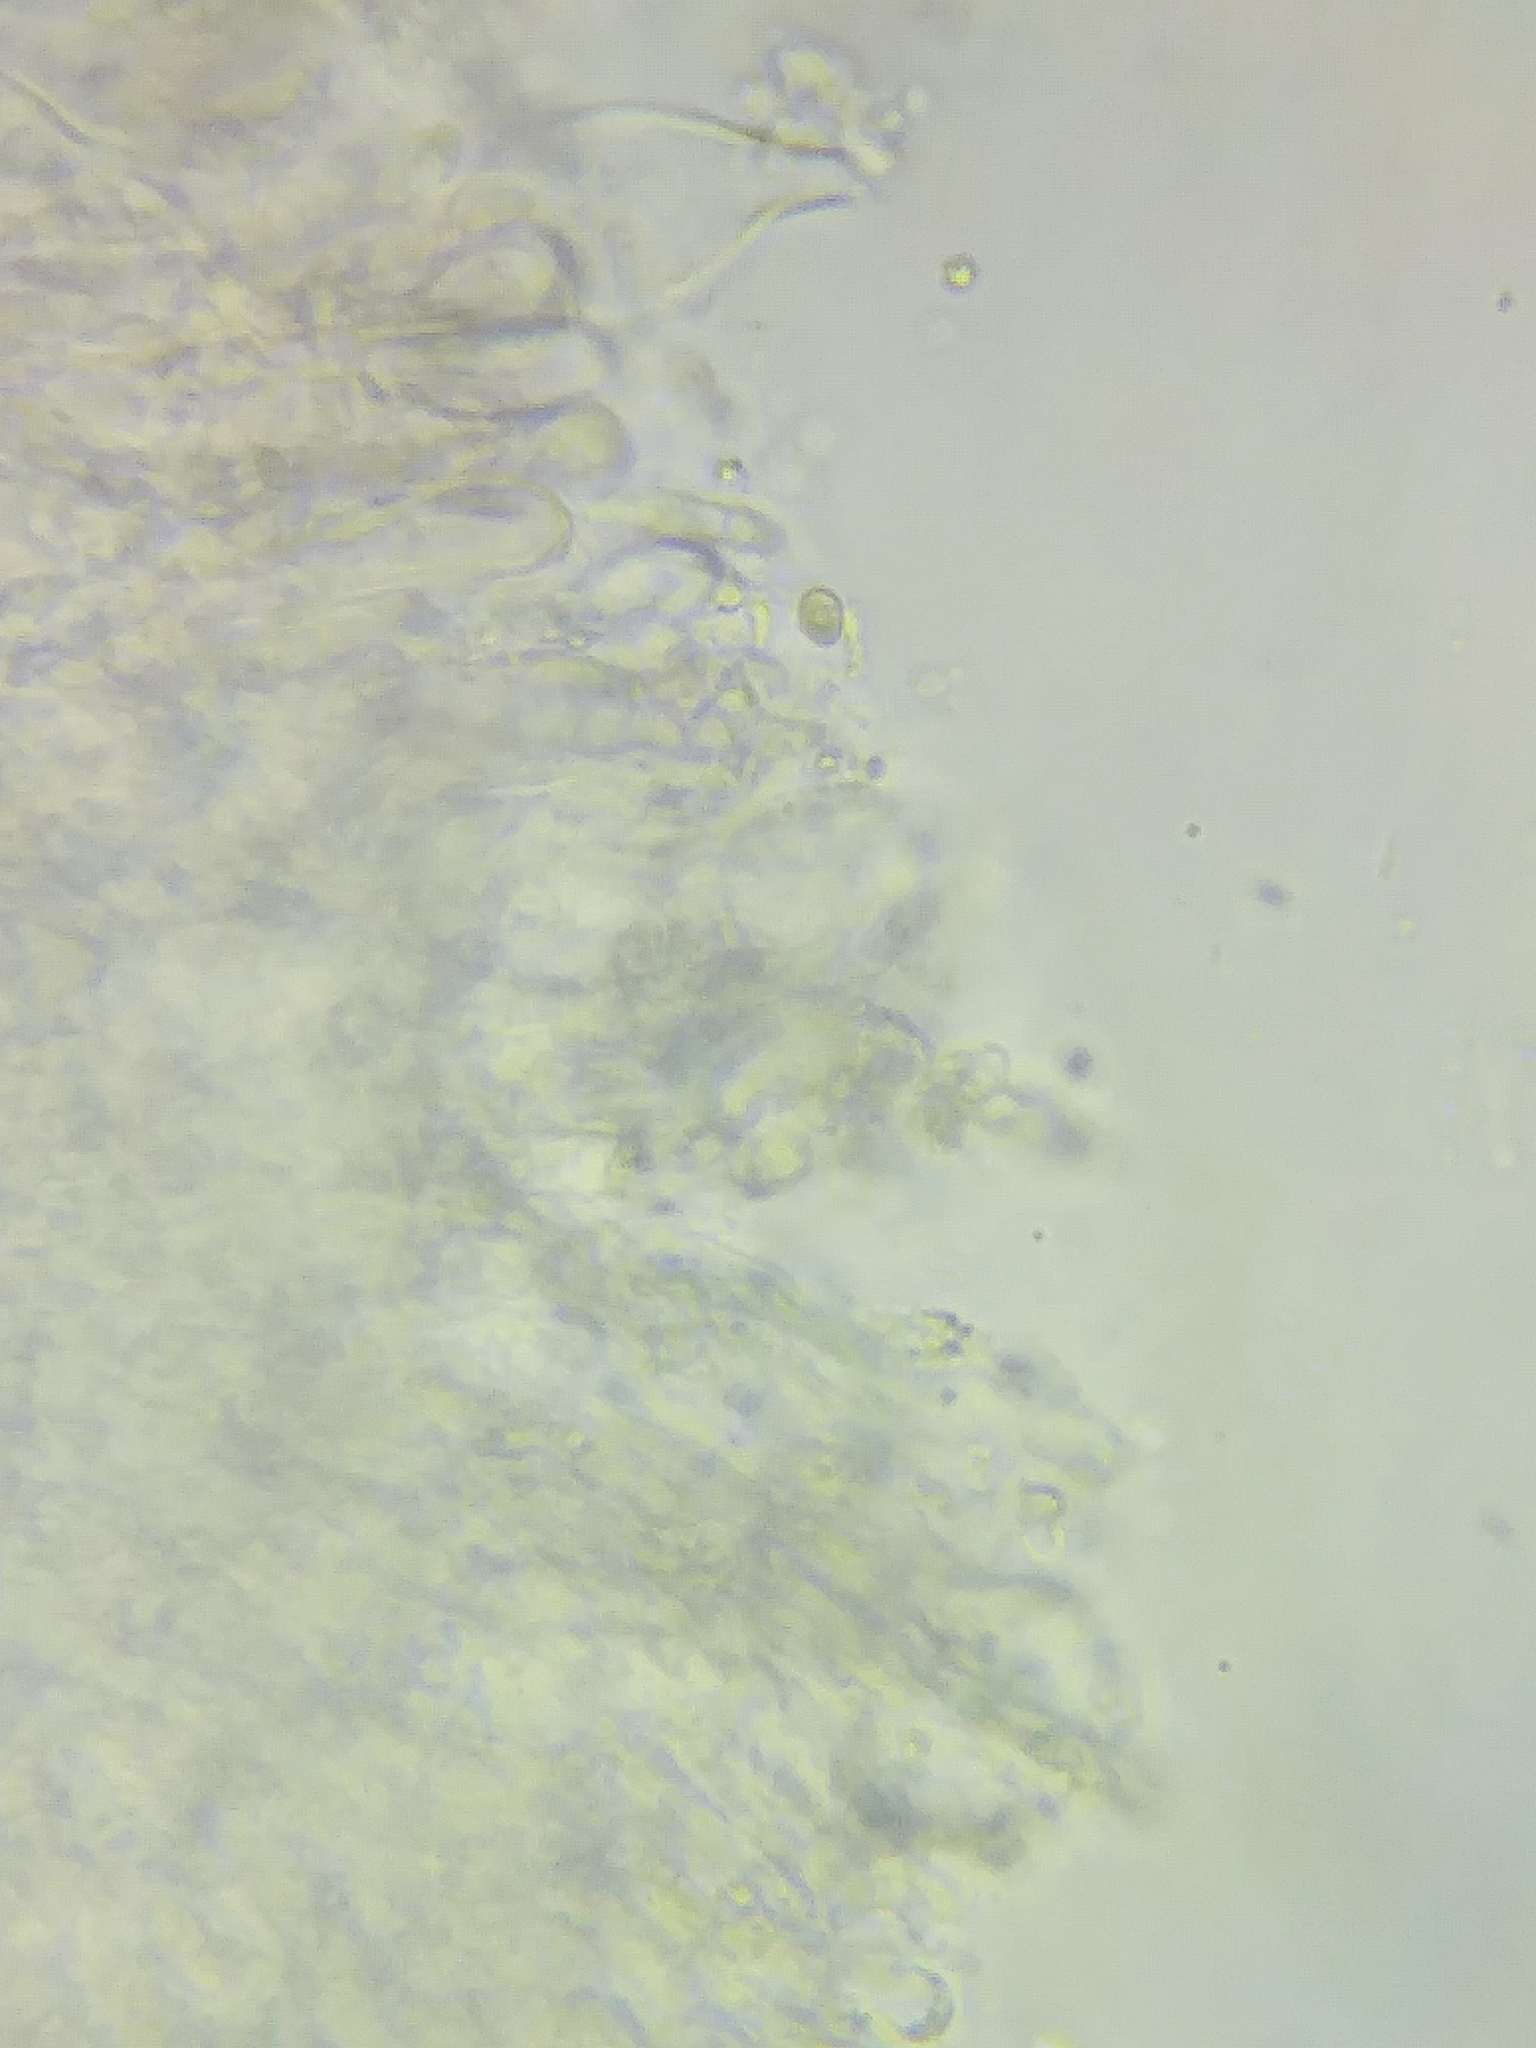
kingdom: Fungi
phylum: Basidiomycota
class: Agaricomycetes
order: Agaricales
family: Tricholomataceae
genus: Megacollybia
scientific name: Megacollybia subfurfuracea
